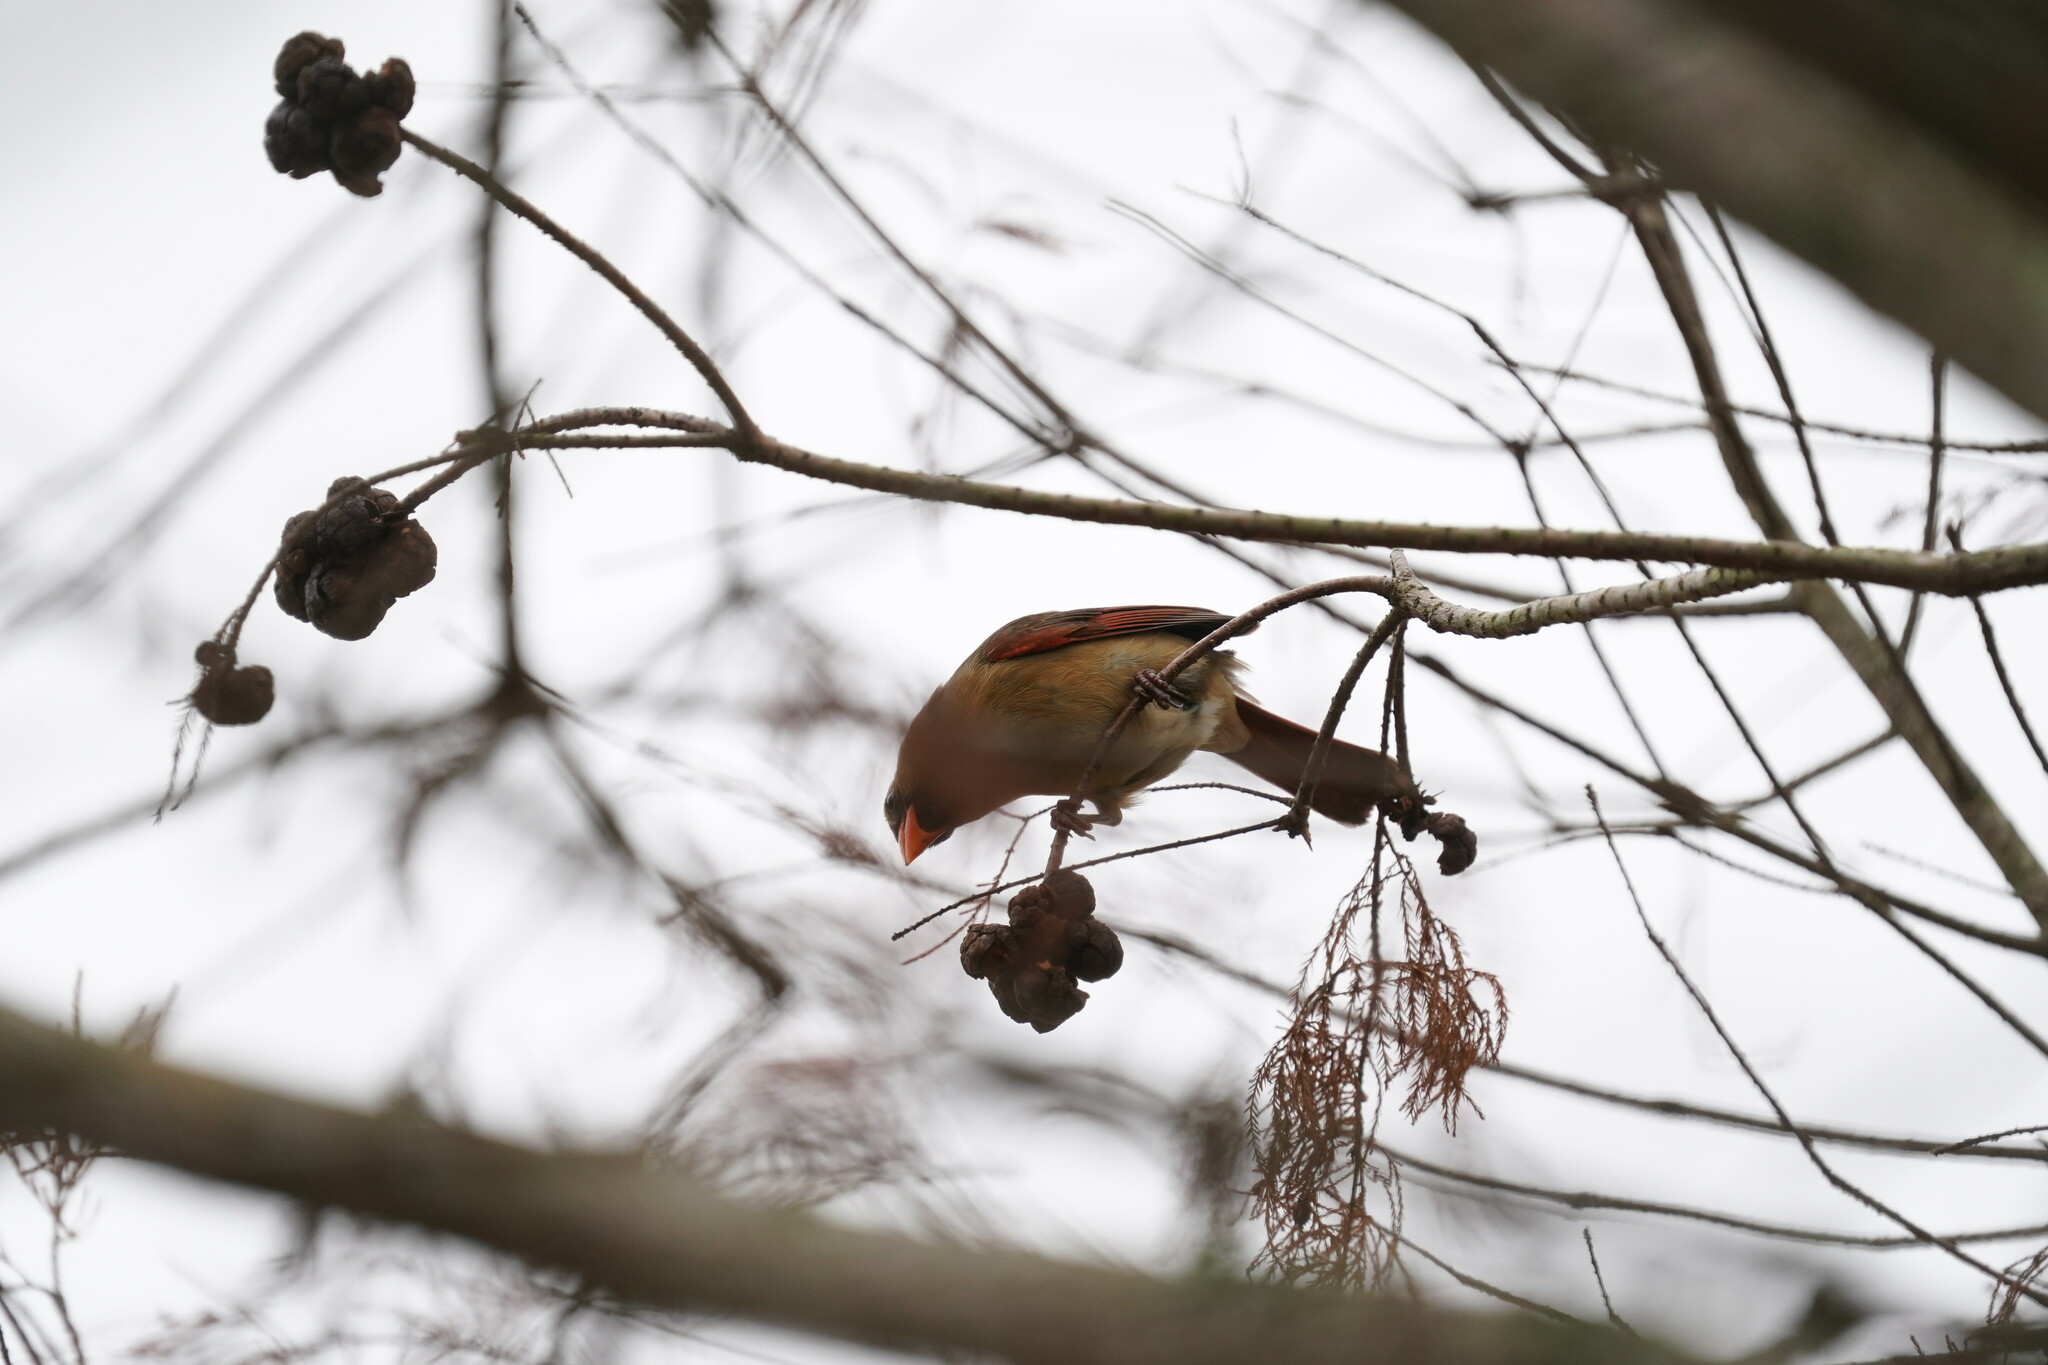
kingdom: Animalia
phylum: Chordata
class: Aves
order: Passeriformes
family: Cardinalidae
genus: Cardinalis
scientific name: Cardinalis cardinalis
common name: Northern cardinal
